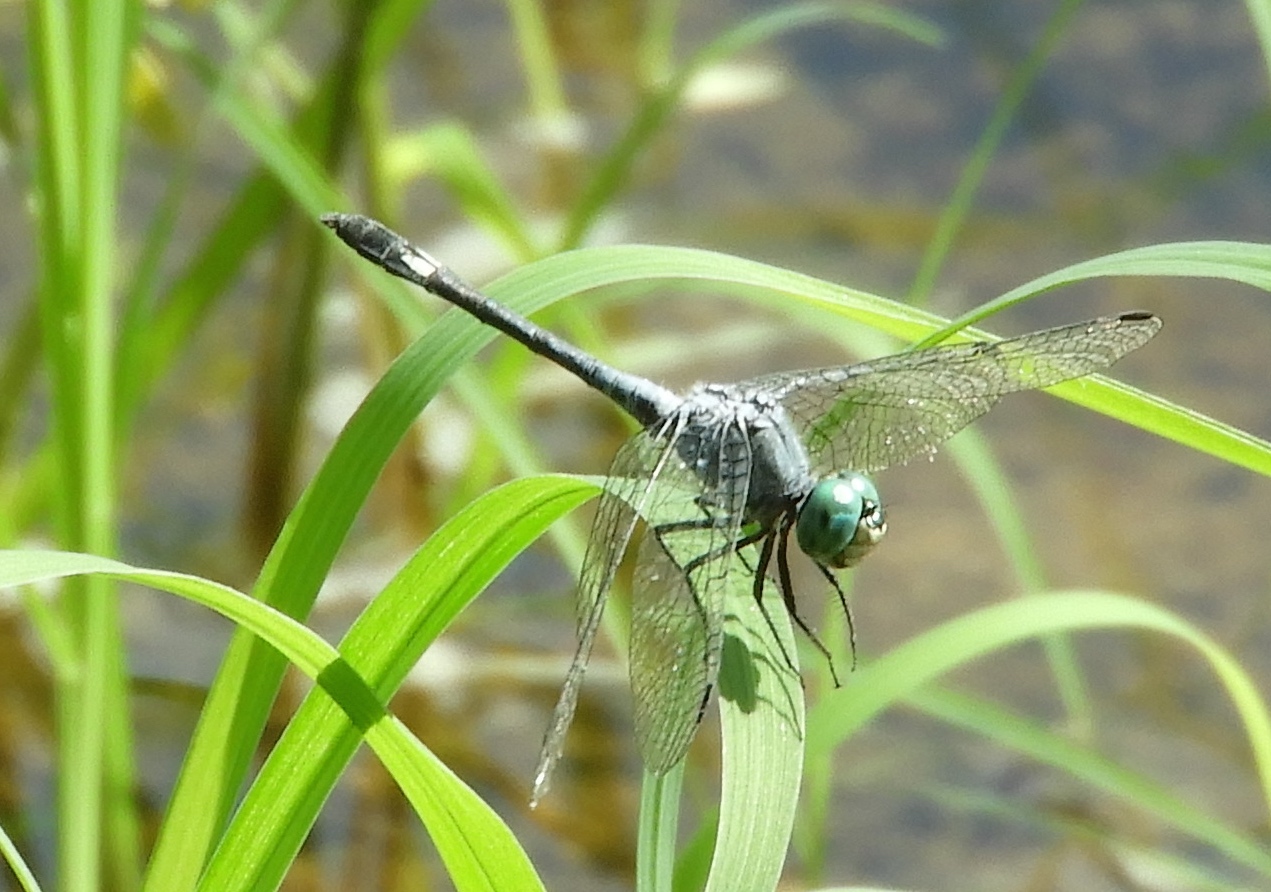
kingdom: Animalia
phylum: Arthropoda
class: Insecta
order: Odonata
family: Libellulidae
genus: Micrathyria
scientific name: Micrathyria aequalis
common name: Spot-tailed dasher
